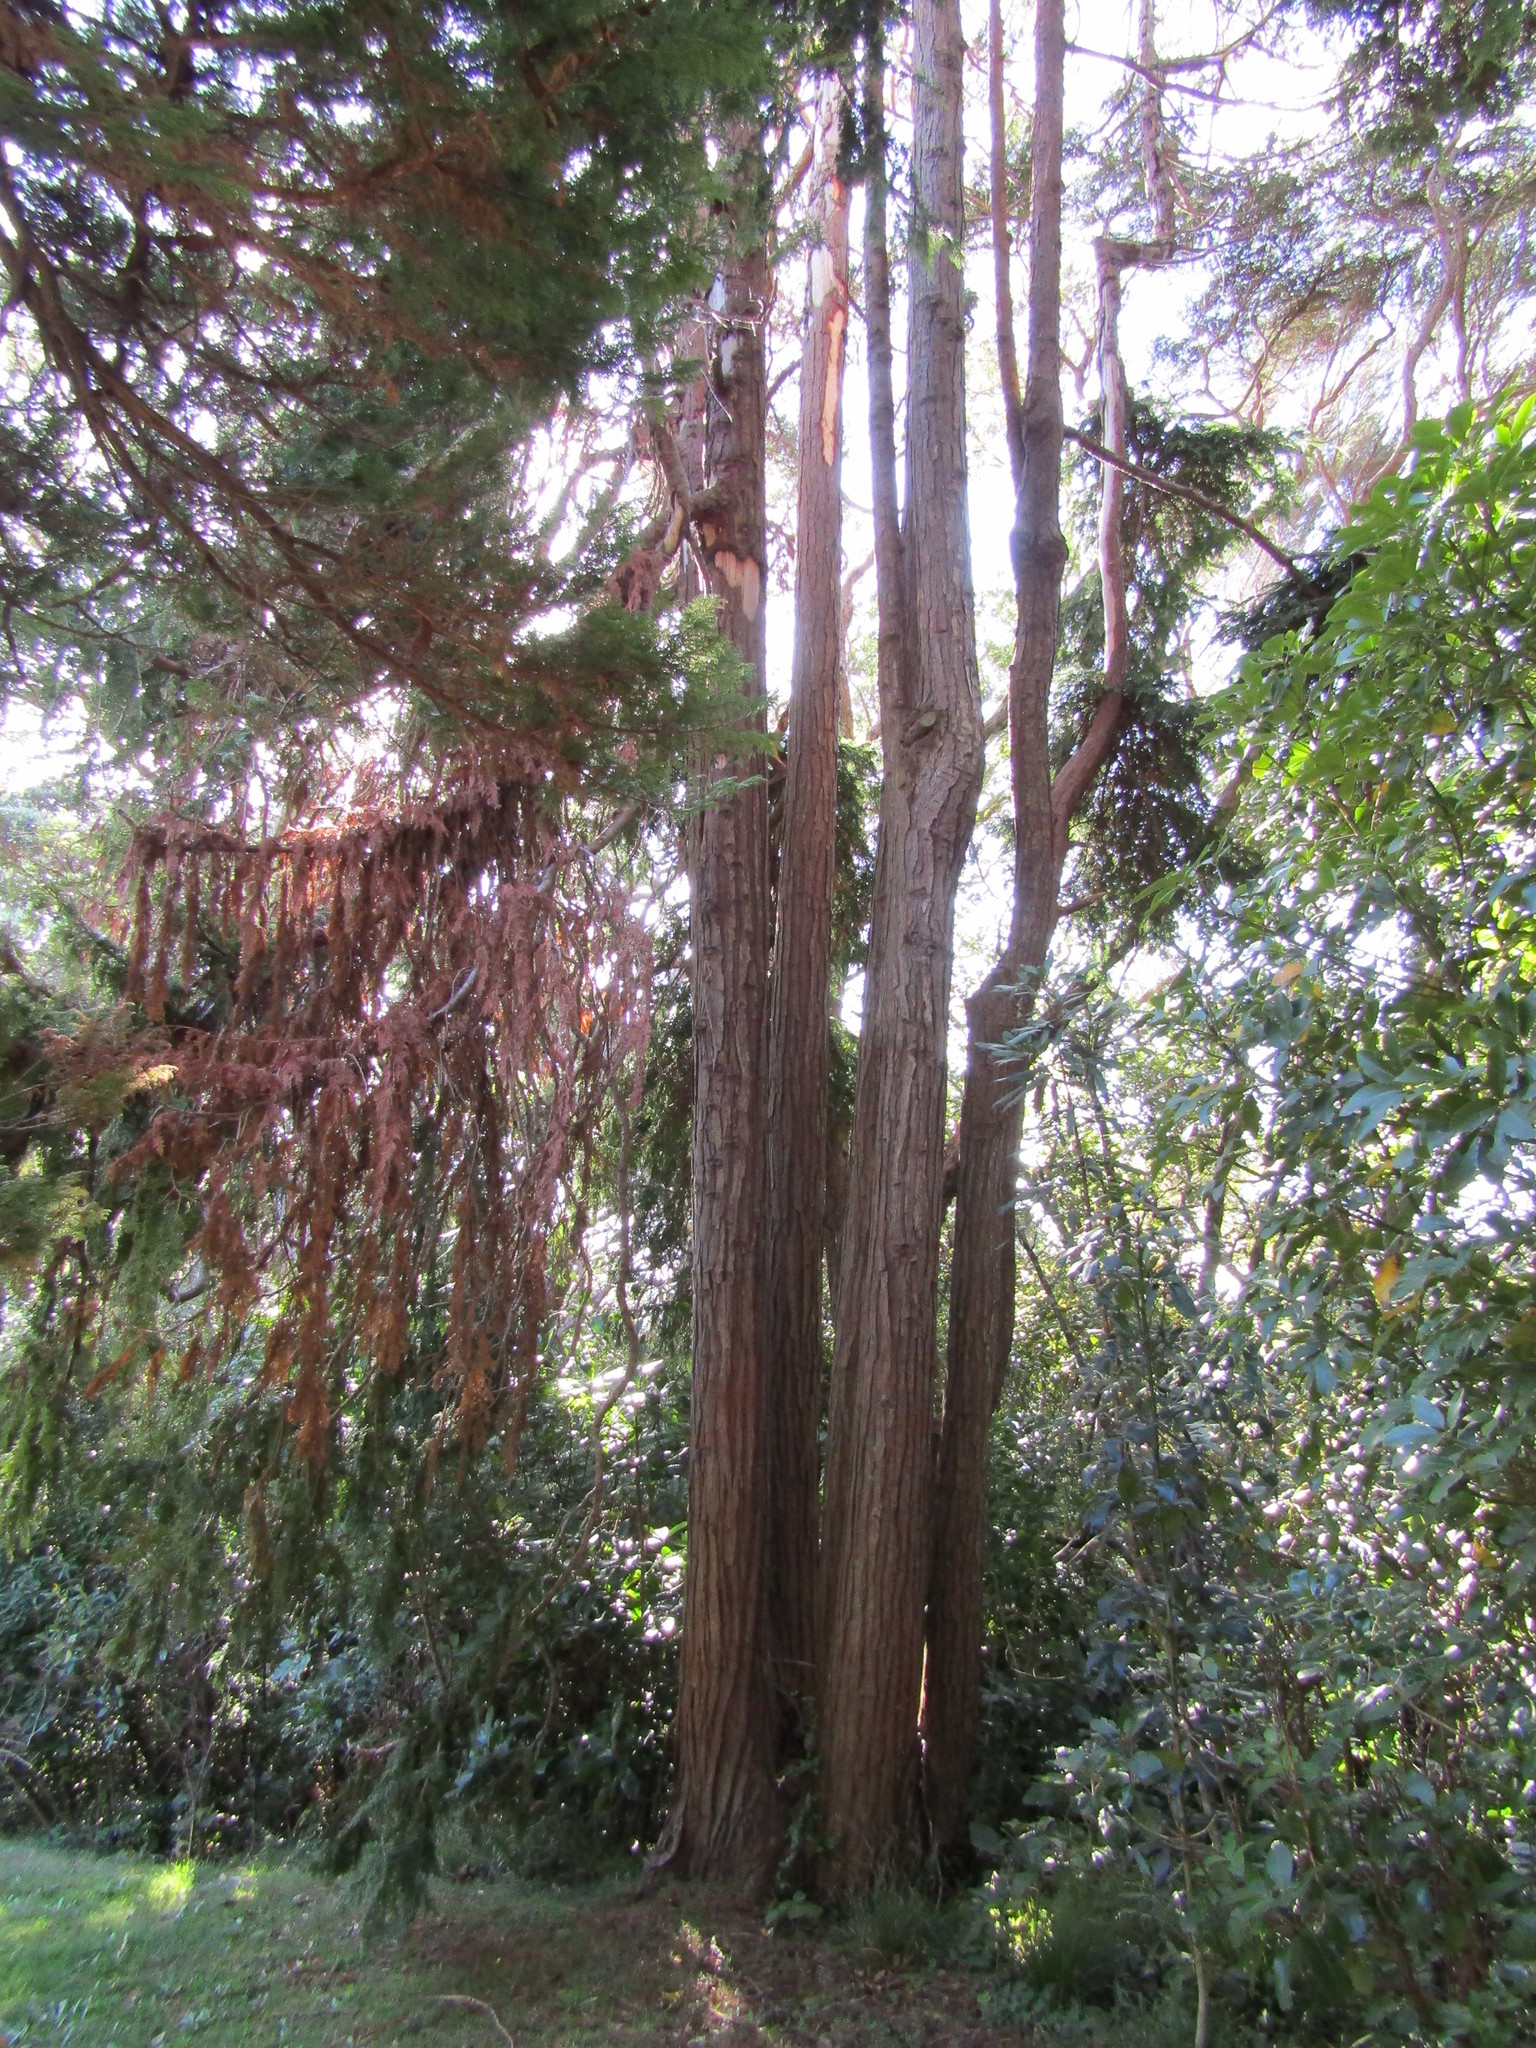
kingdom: Animalia
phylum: Chordata
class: Aves
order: Psittaciformes
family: Psittacidae
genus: Nestor
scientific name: Nestor meridionalis
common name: New zealand kaka
